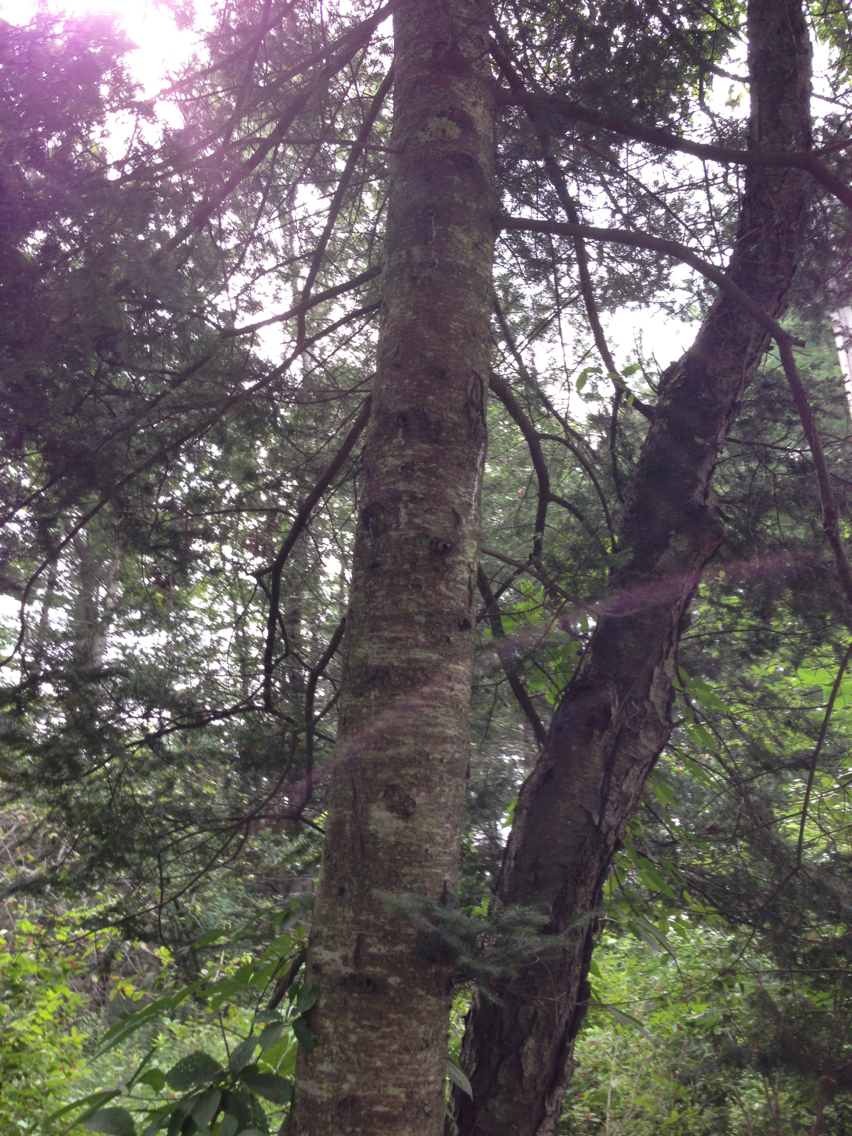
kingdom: Plantae
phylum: Tracheophyta
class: Pinopsida
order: Pinales
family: Pinaceae
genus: Abies
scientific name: Abies balsamea
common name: Balsam fir
